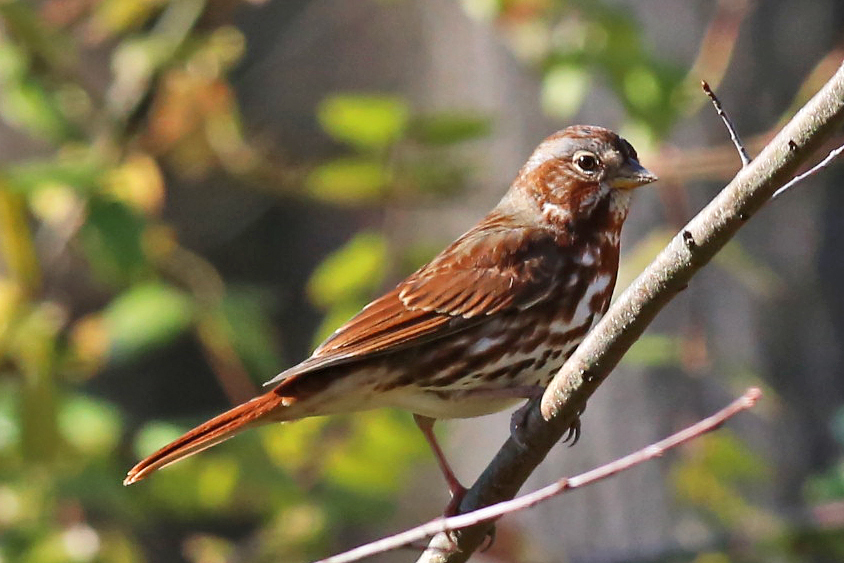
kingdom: Animalia
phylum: Chordata
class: Aves
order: Passeriformes
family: Passerellidae
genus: Passerella
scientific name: Passerella iliaca
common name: Fox sparrow
